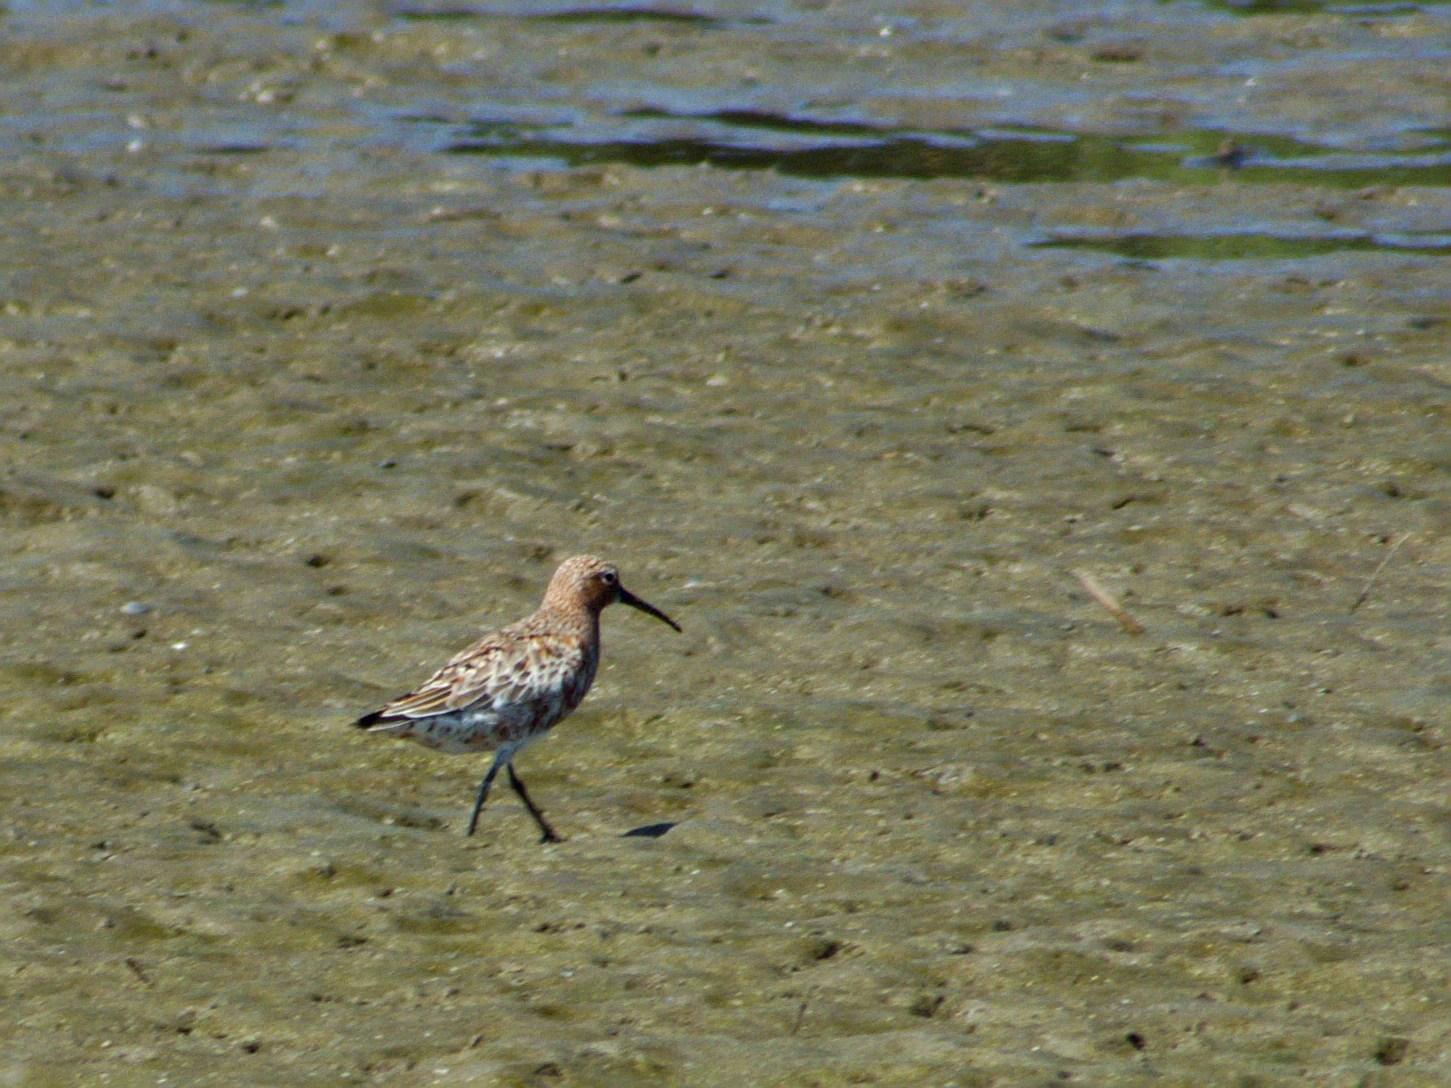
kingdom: Animalia
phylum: Chordata
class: Aves
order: Charadriiformes
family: Scolopacidae
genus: Calidris
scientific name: Calidris ferruginea
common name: Curlew sandpiper
